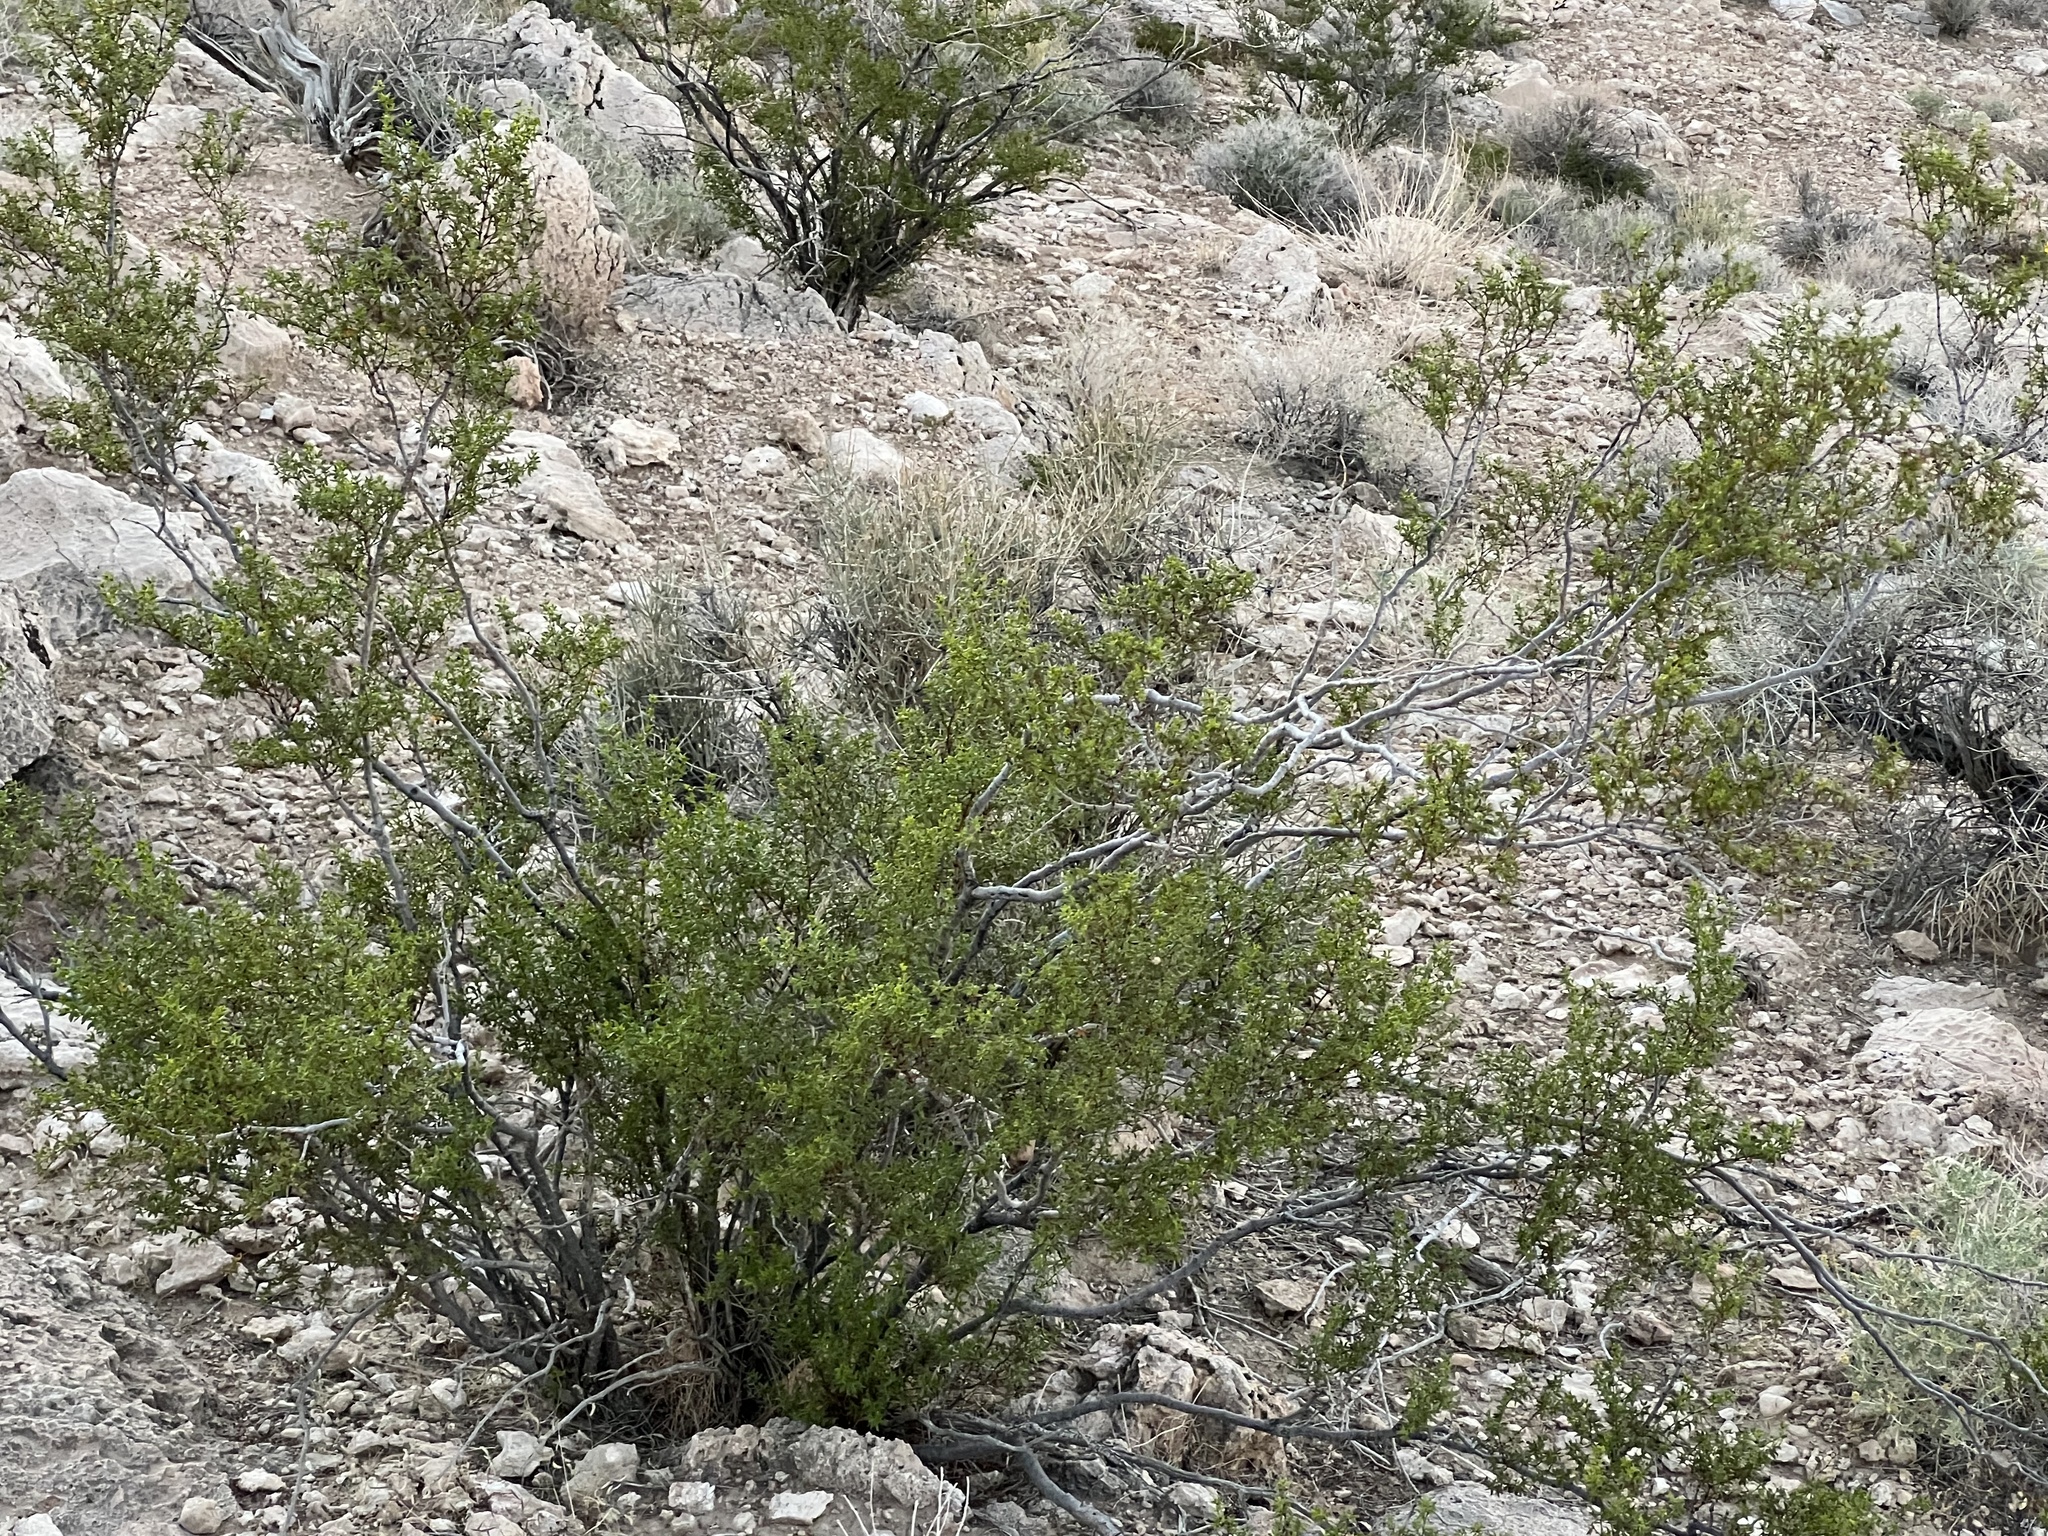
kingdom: Plantae
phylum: Tracheophyta
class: Magnoliopsida
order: Zygophyllales
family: Zygophyllaceae
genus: Larrea
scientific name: Larrea tridentata
